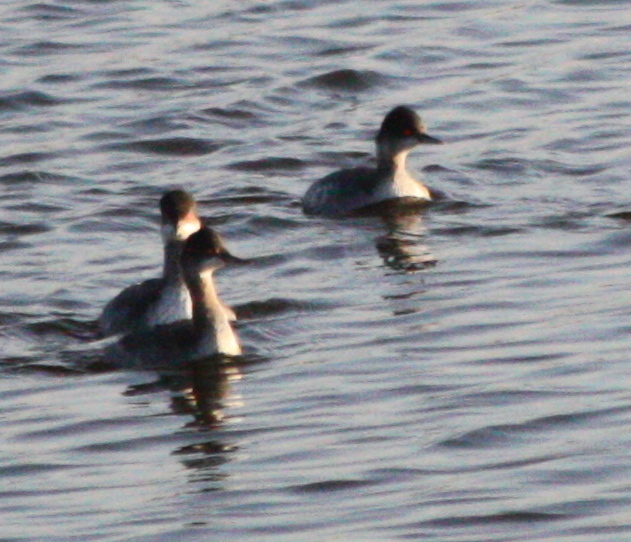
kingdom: Animalia
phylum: Chordata
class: Aves
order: Podicipediformes
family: Podicipedidae
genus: Podiceps
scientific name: Podiceps nigricollis
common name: Black-necked grebe
